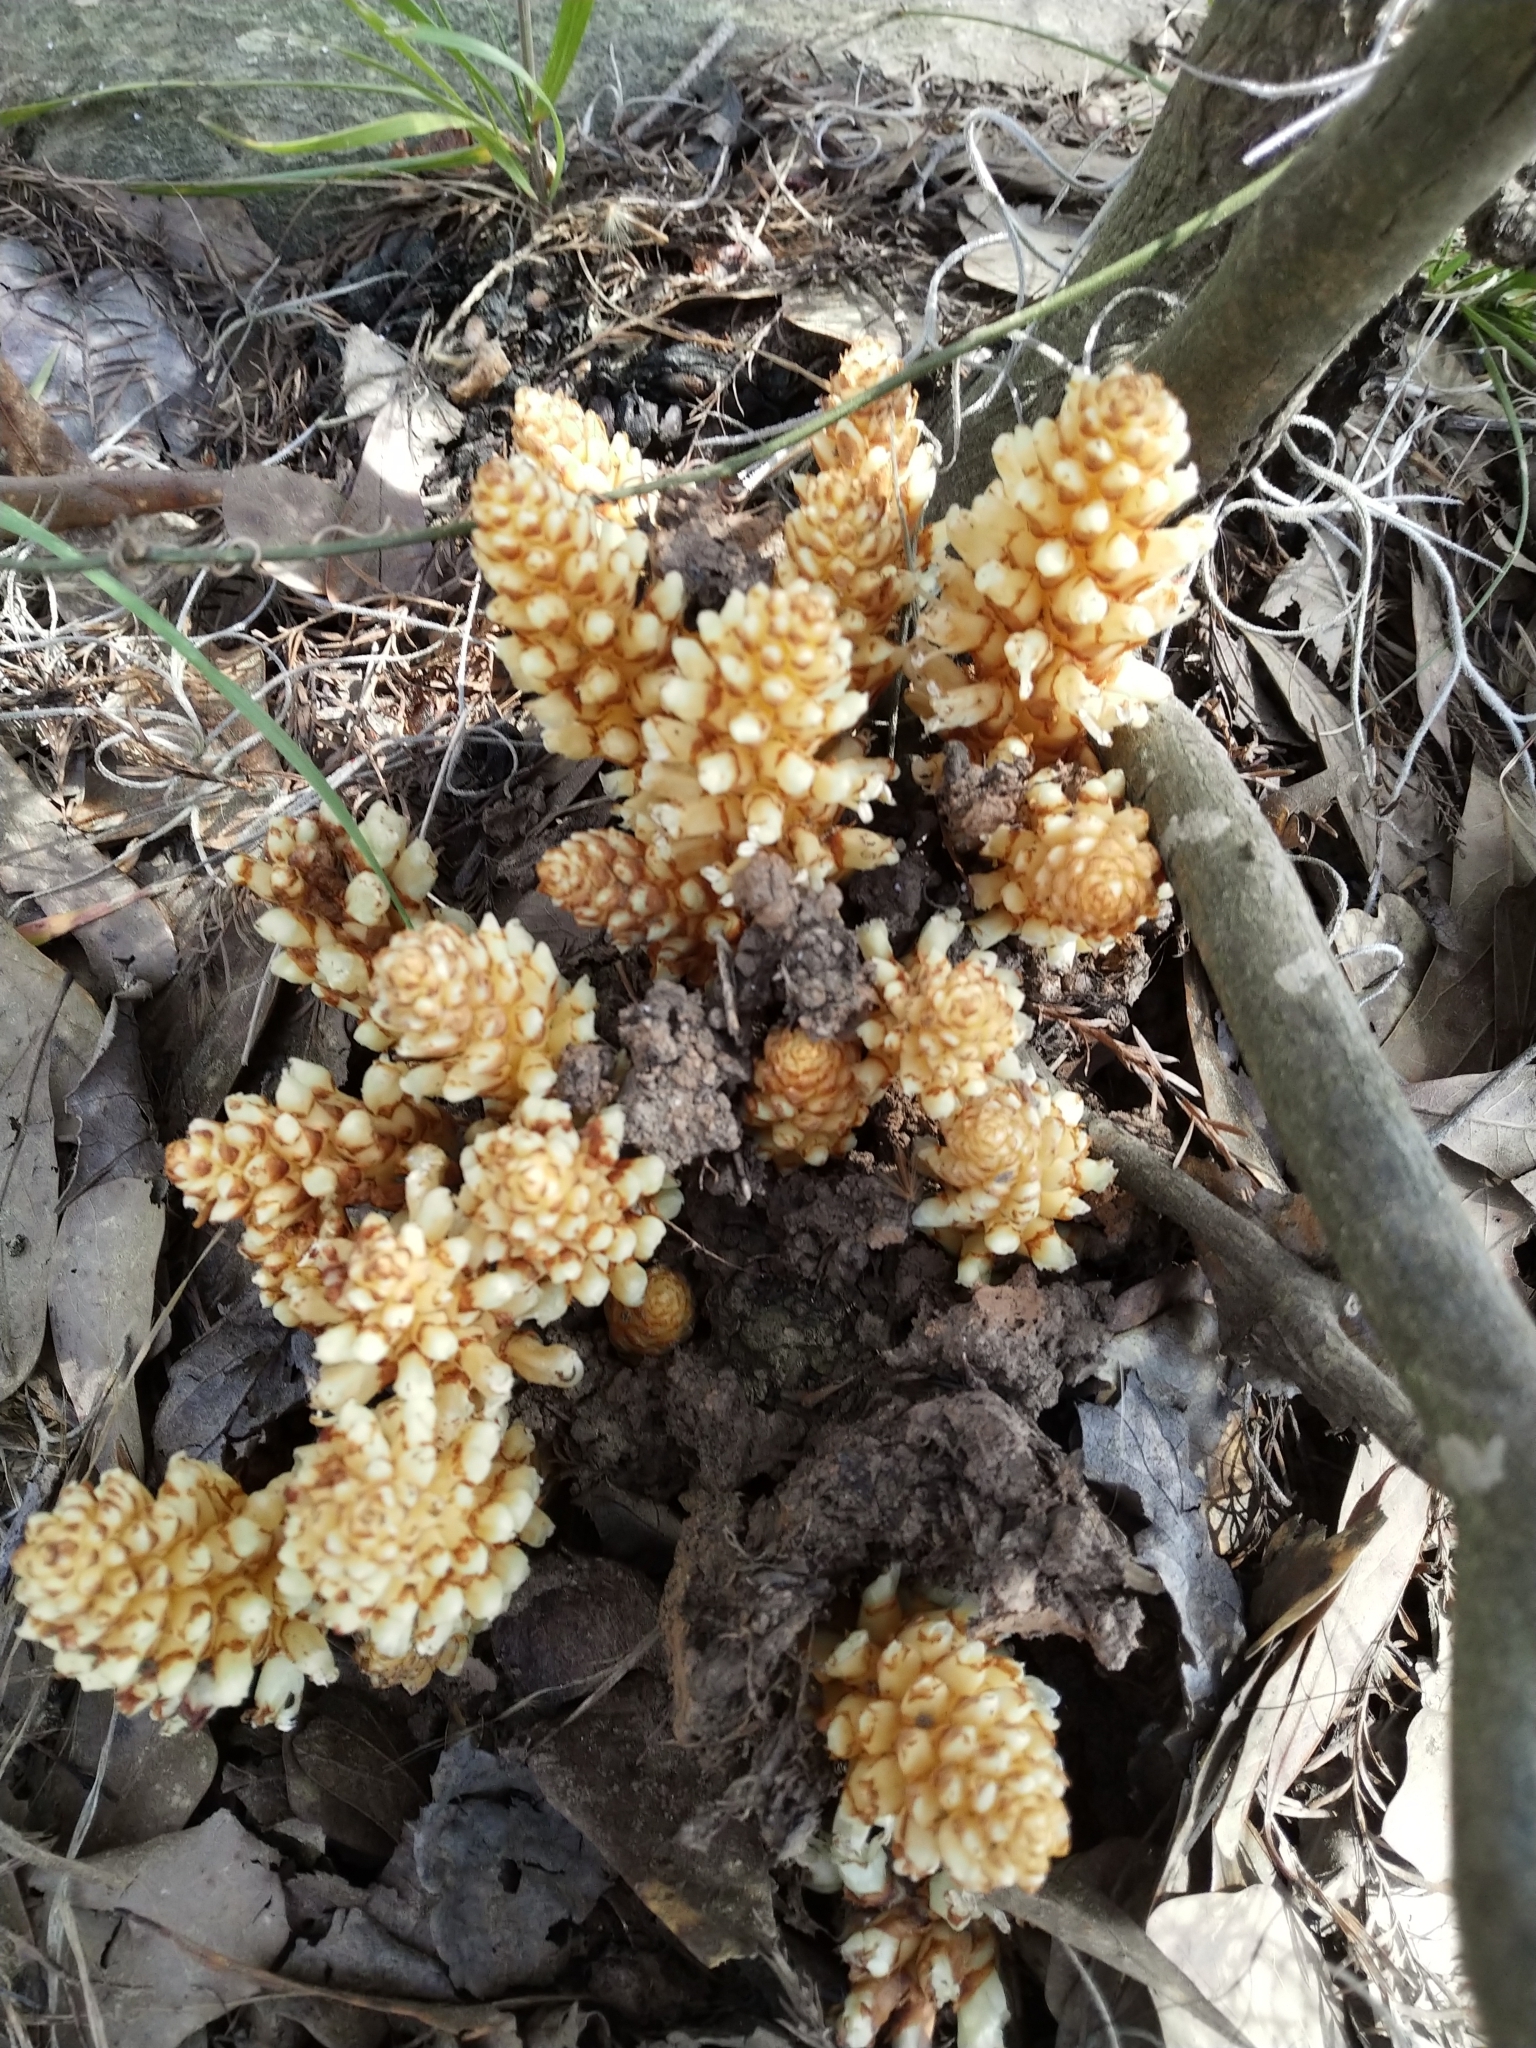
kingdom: Plantae
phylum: Tracheophyta
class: Magnoliopsida
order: Lamiales
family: Orobanchaceae
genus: Conopholis
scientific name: Conopholis americana
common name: American cancer-root
